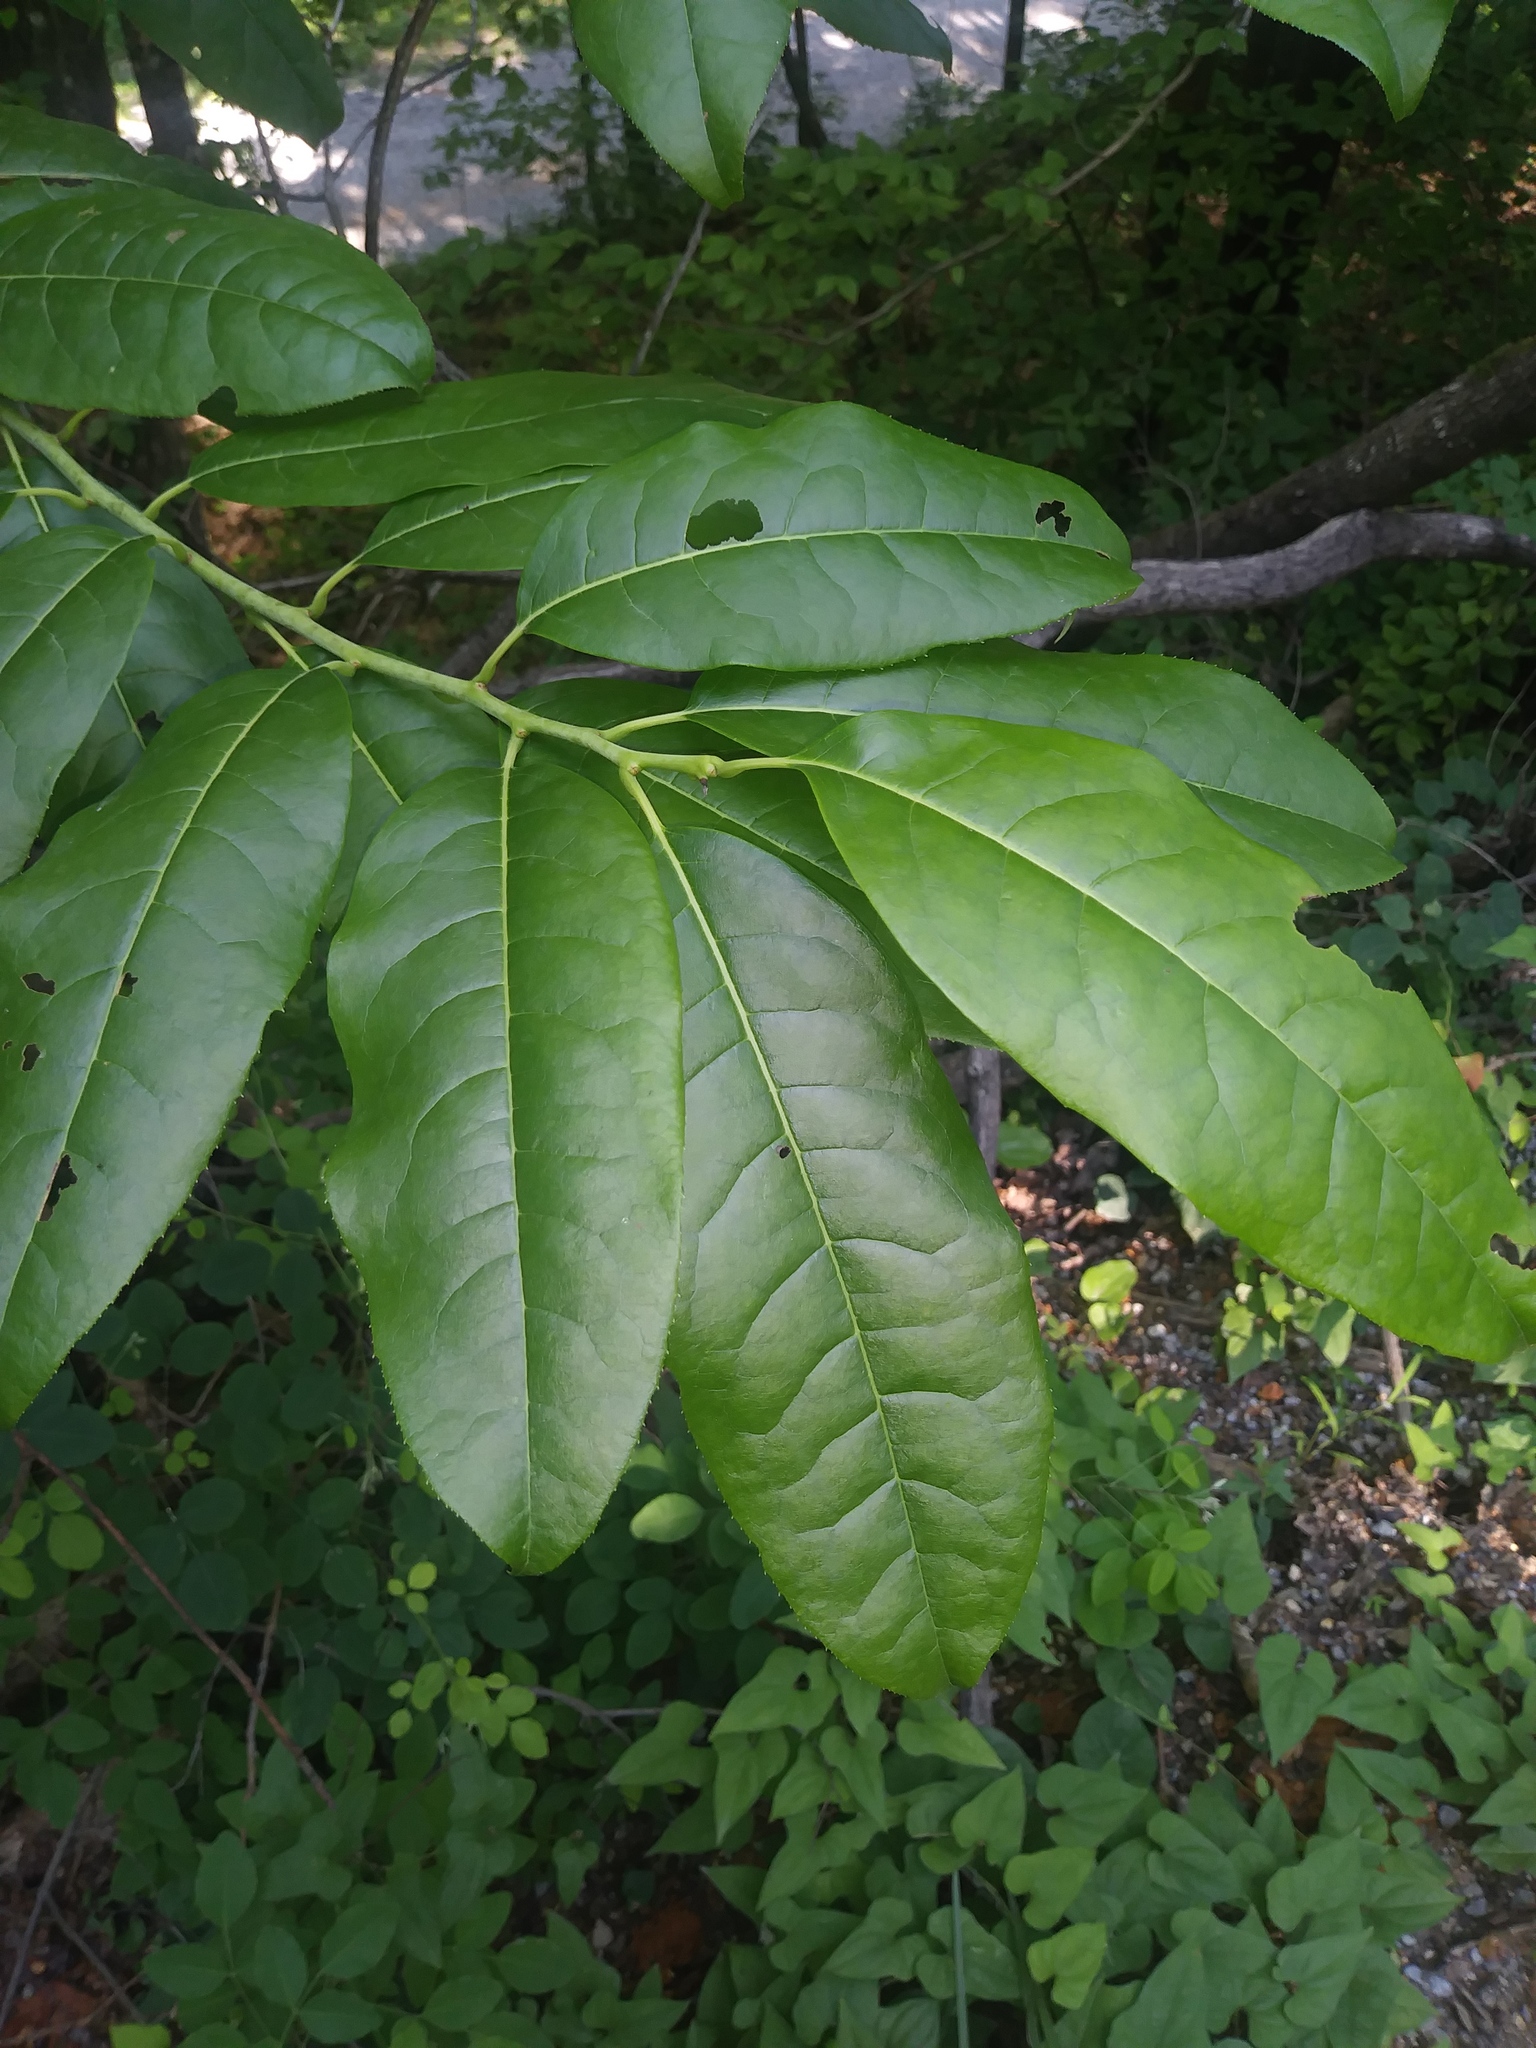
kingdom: Plantae
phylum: Tracheophyta
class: Magnoliopsida
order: Ericales
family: Ericaceae
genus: Oxydendrum
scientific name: Oxydendrum arboreum
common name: Sourwood
